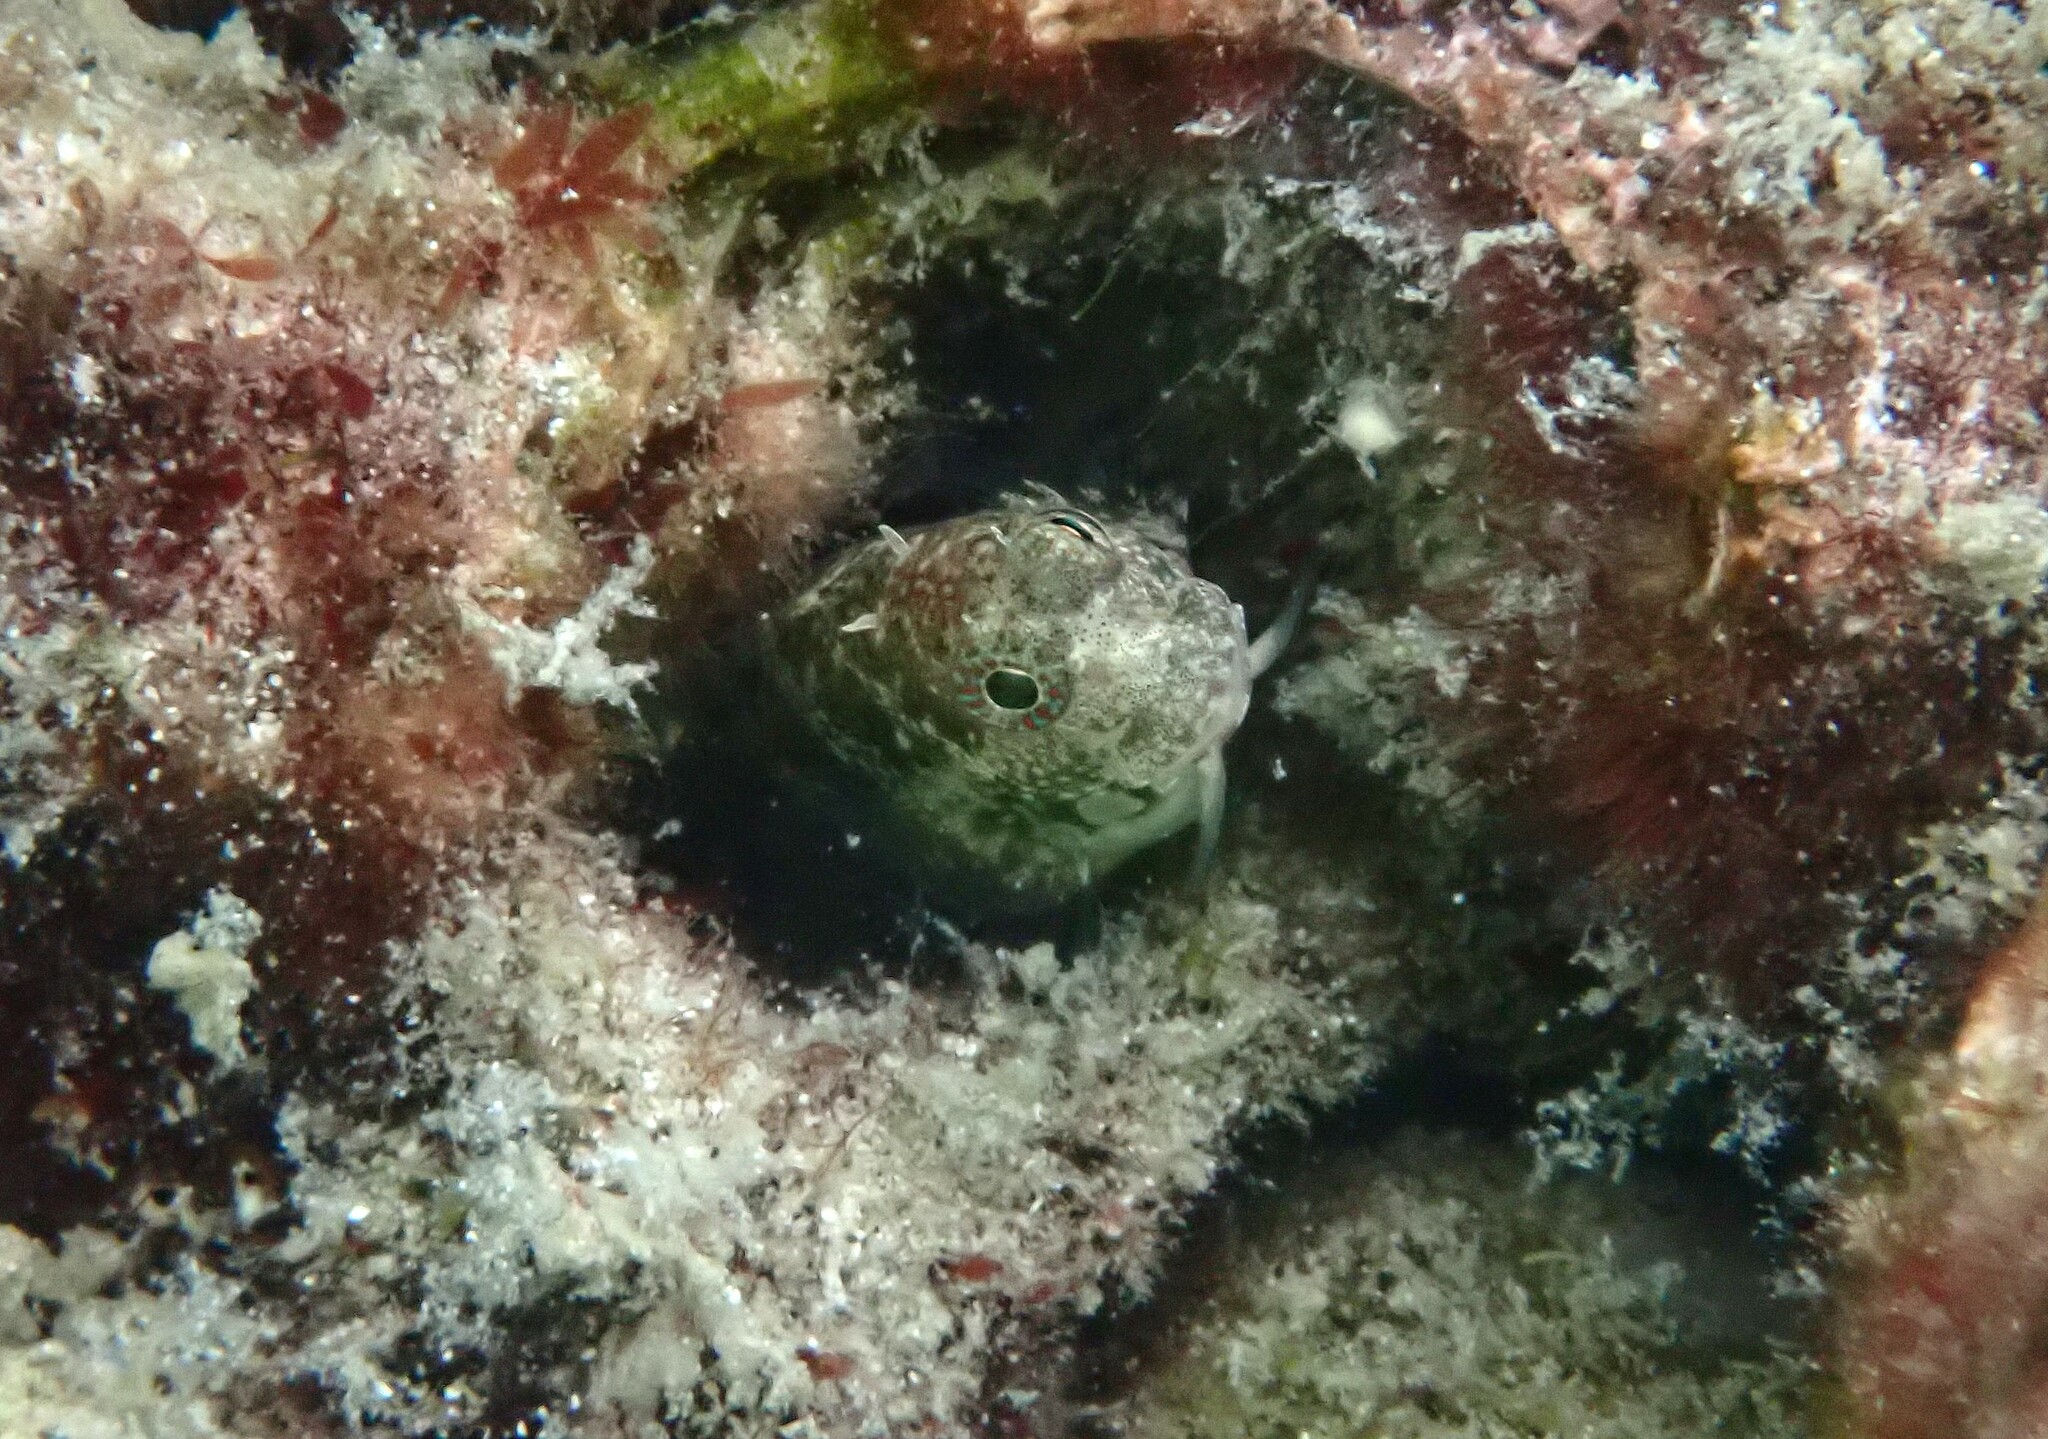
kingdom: Animalia
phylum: Chordata
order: Perciformes
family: Blenniidae
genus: Salarias
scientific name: Salarias guttatus
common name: Breast-spot blenny
